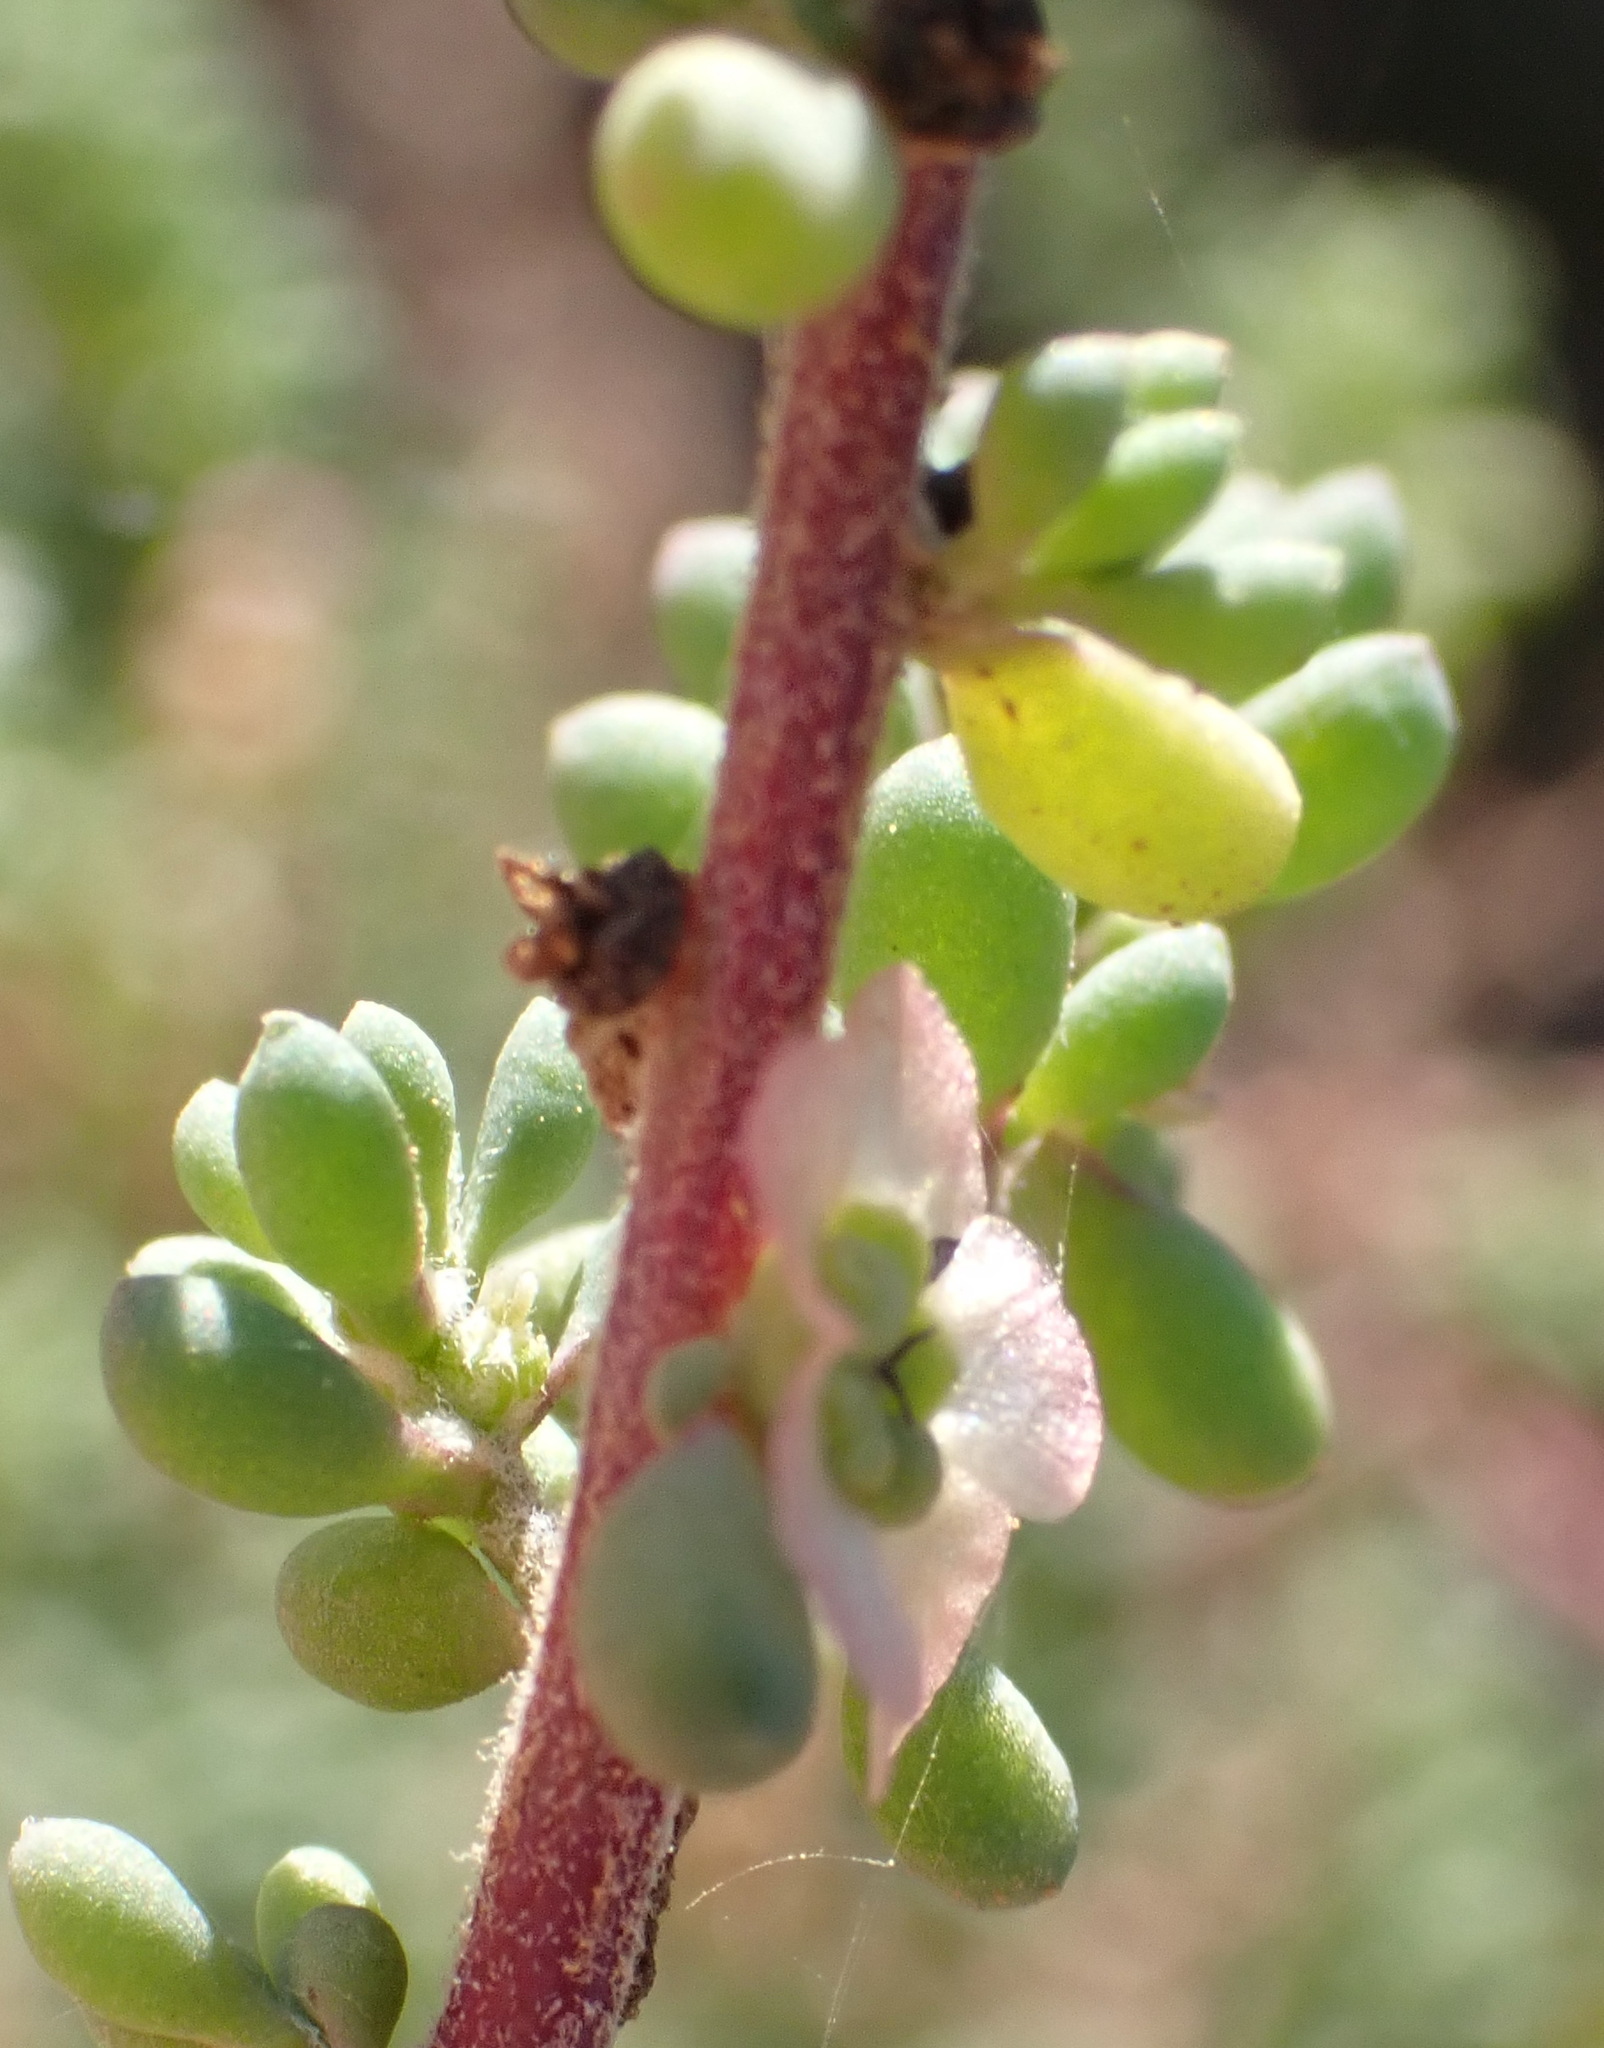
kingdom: Plantae
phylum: Tracheophyta
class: Magnoliopsida
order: Caryophyllales
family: Amaranthaceae
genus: Maireana
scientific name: Maireana brevifolia
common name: Eastern cottonbush
